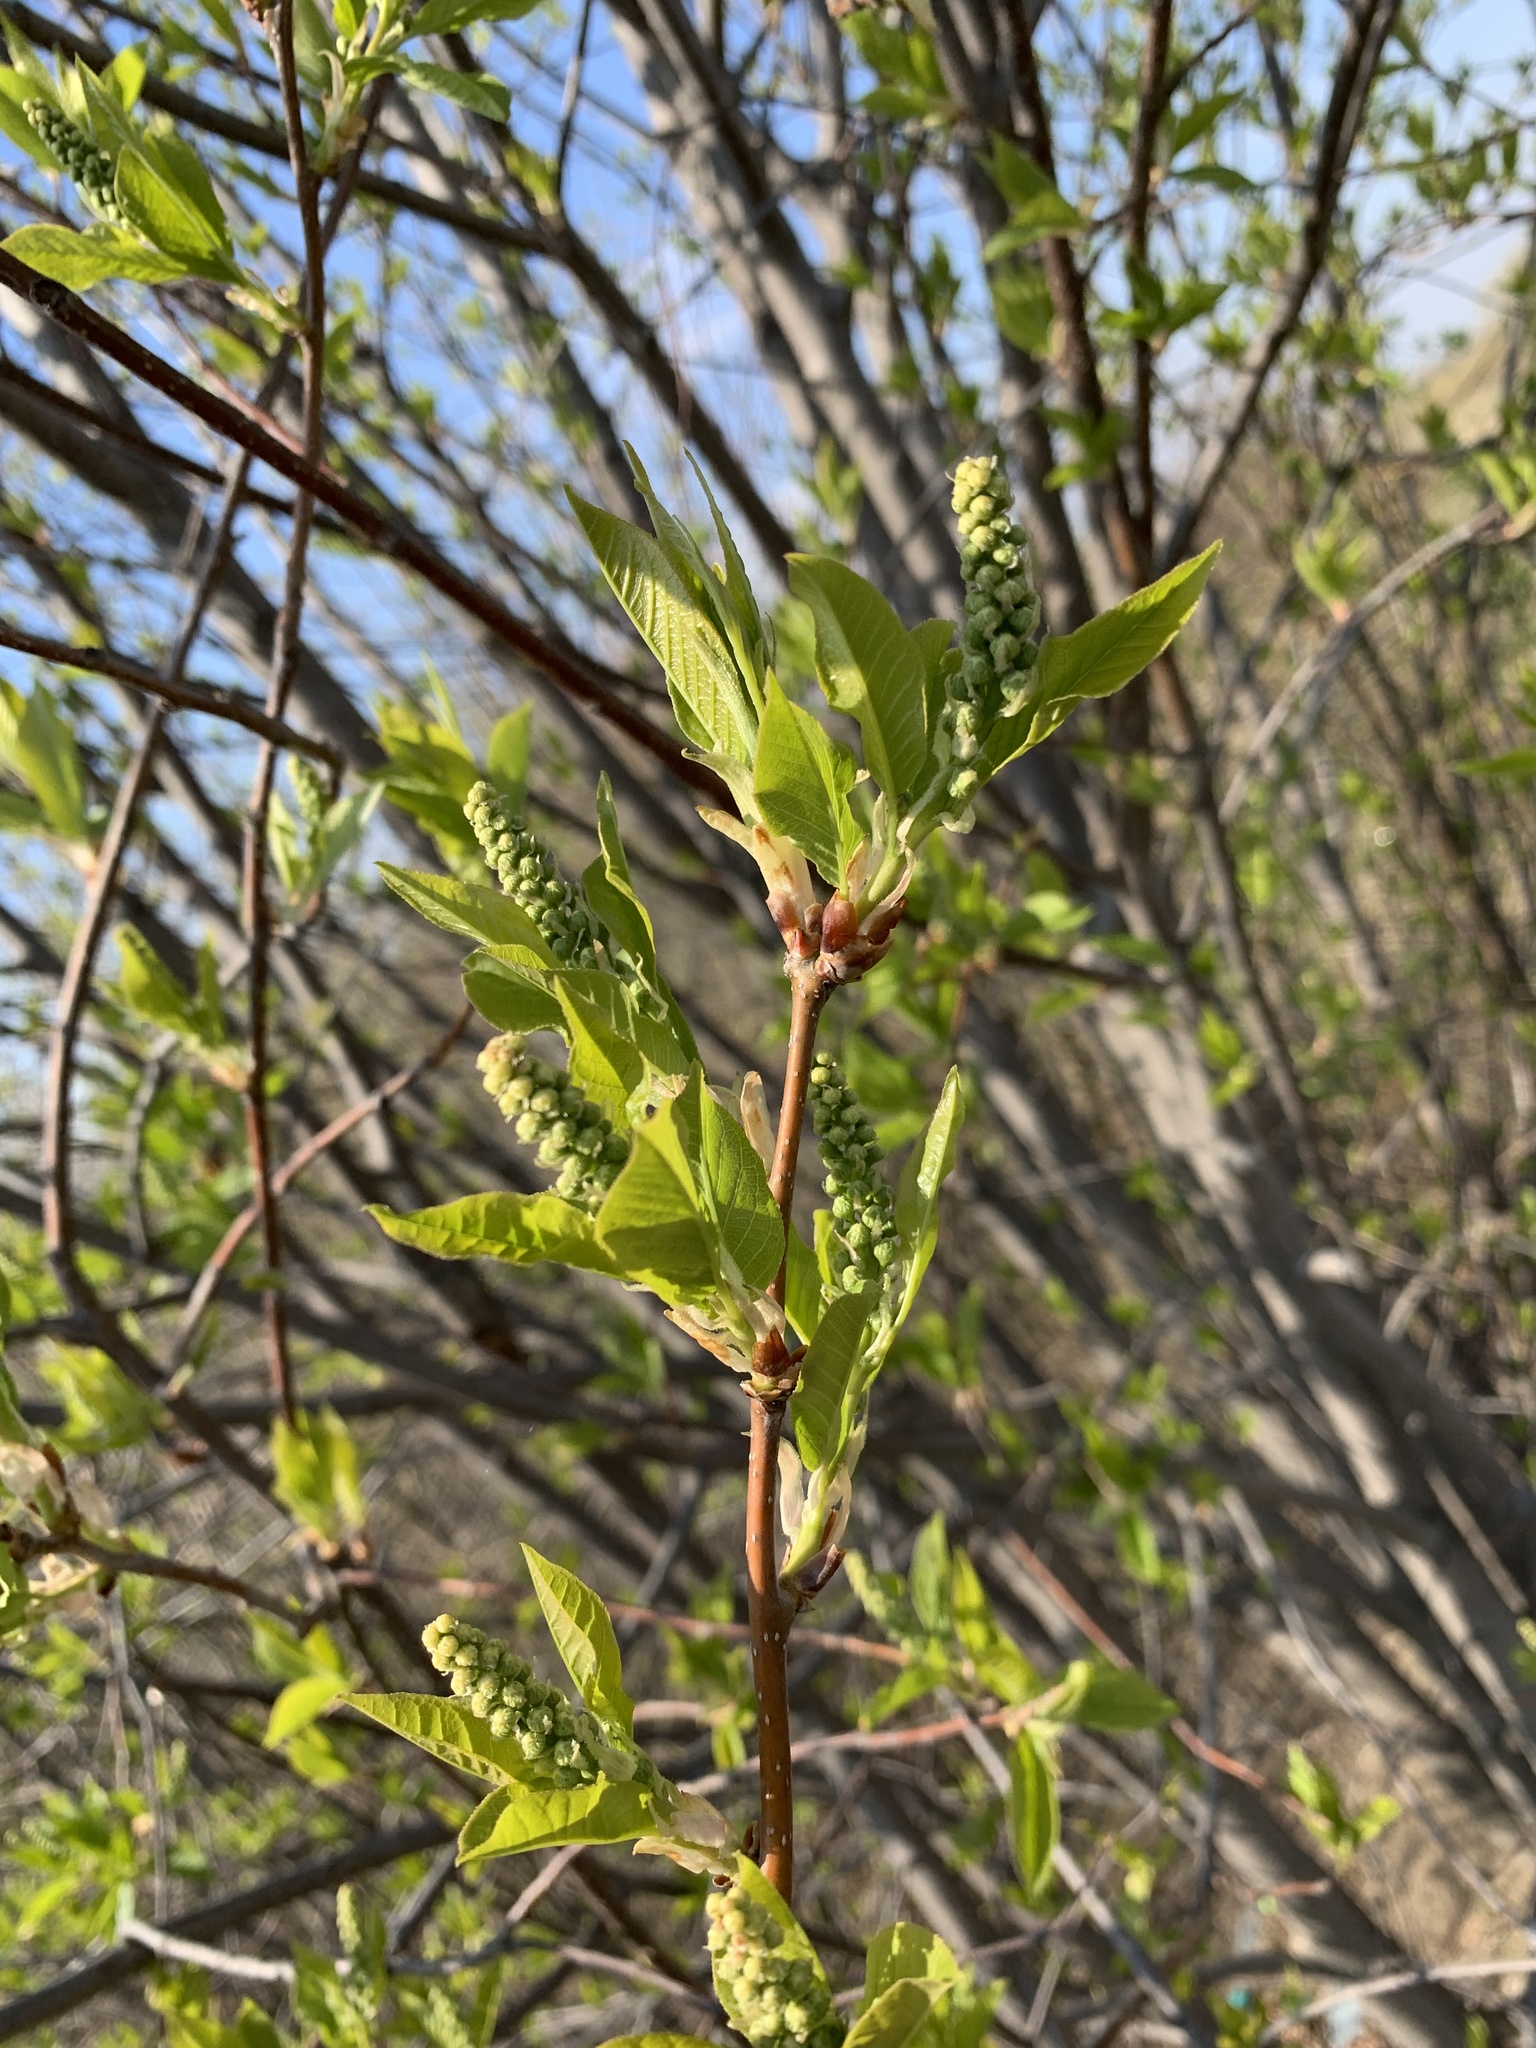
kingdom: Plantae
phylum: Tracheophyta
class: Magnoliopsida
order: Rosales
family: Rosaceae
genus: Prunus
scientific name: Prunus padus
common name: Bird cherry
